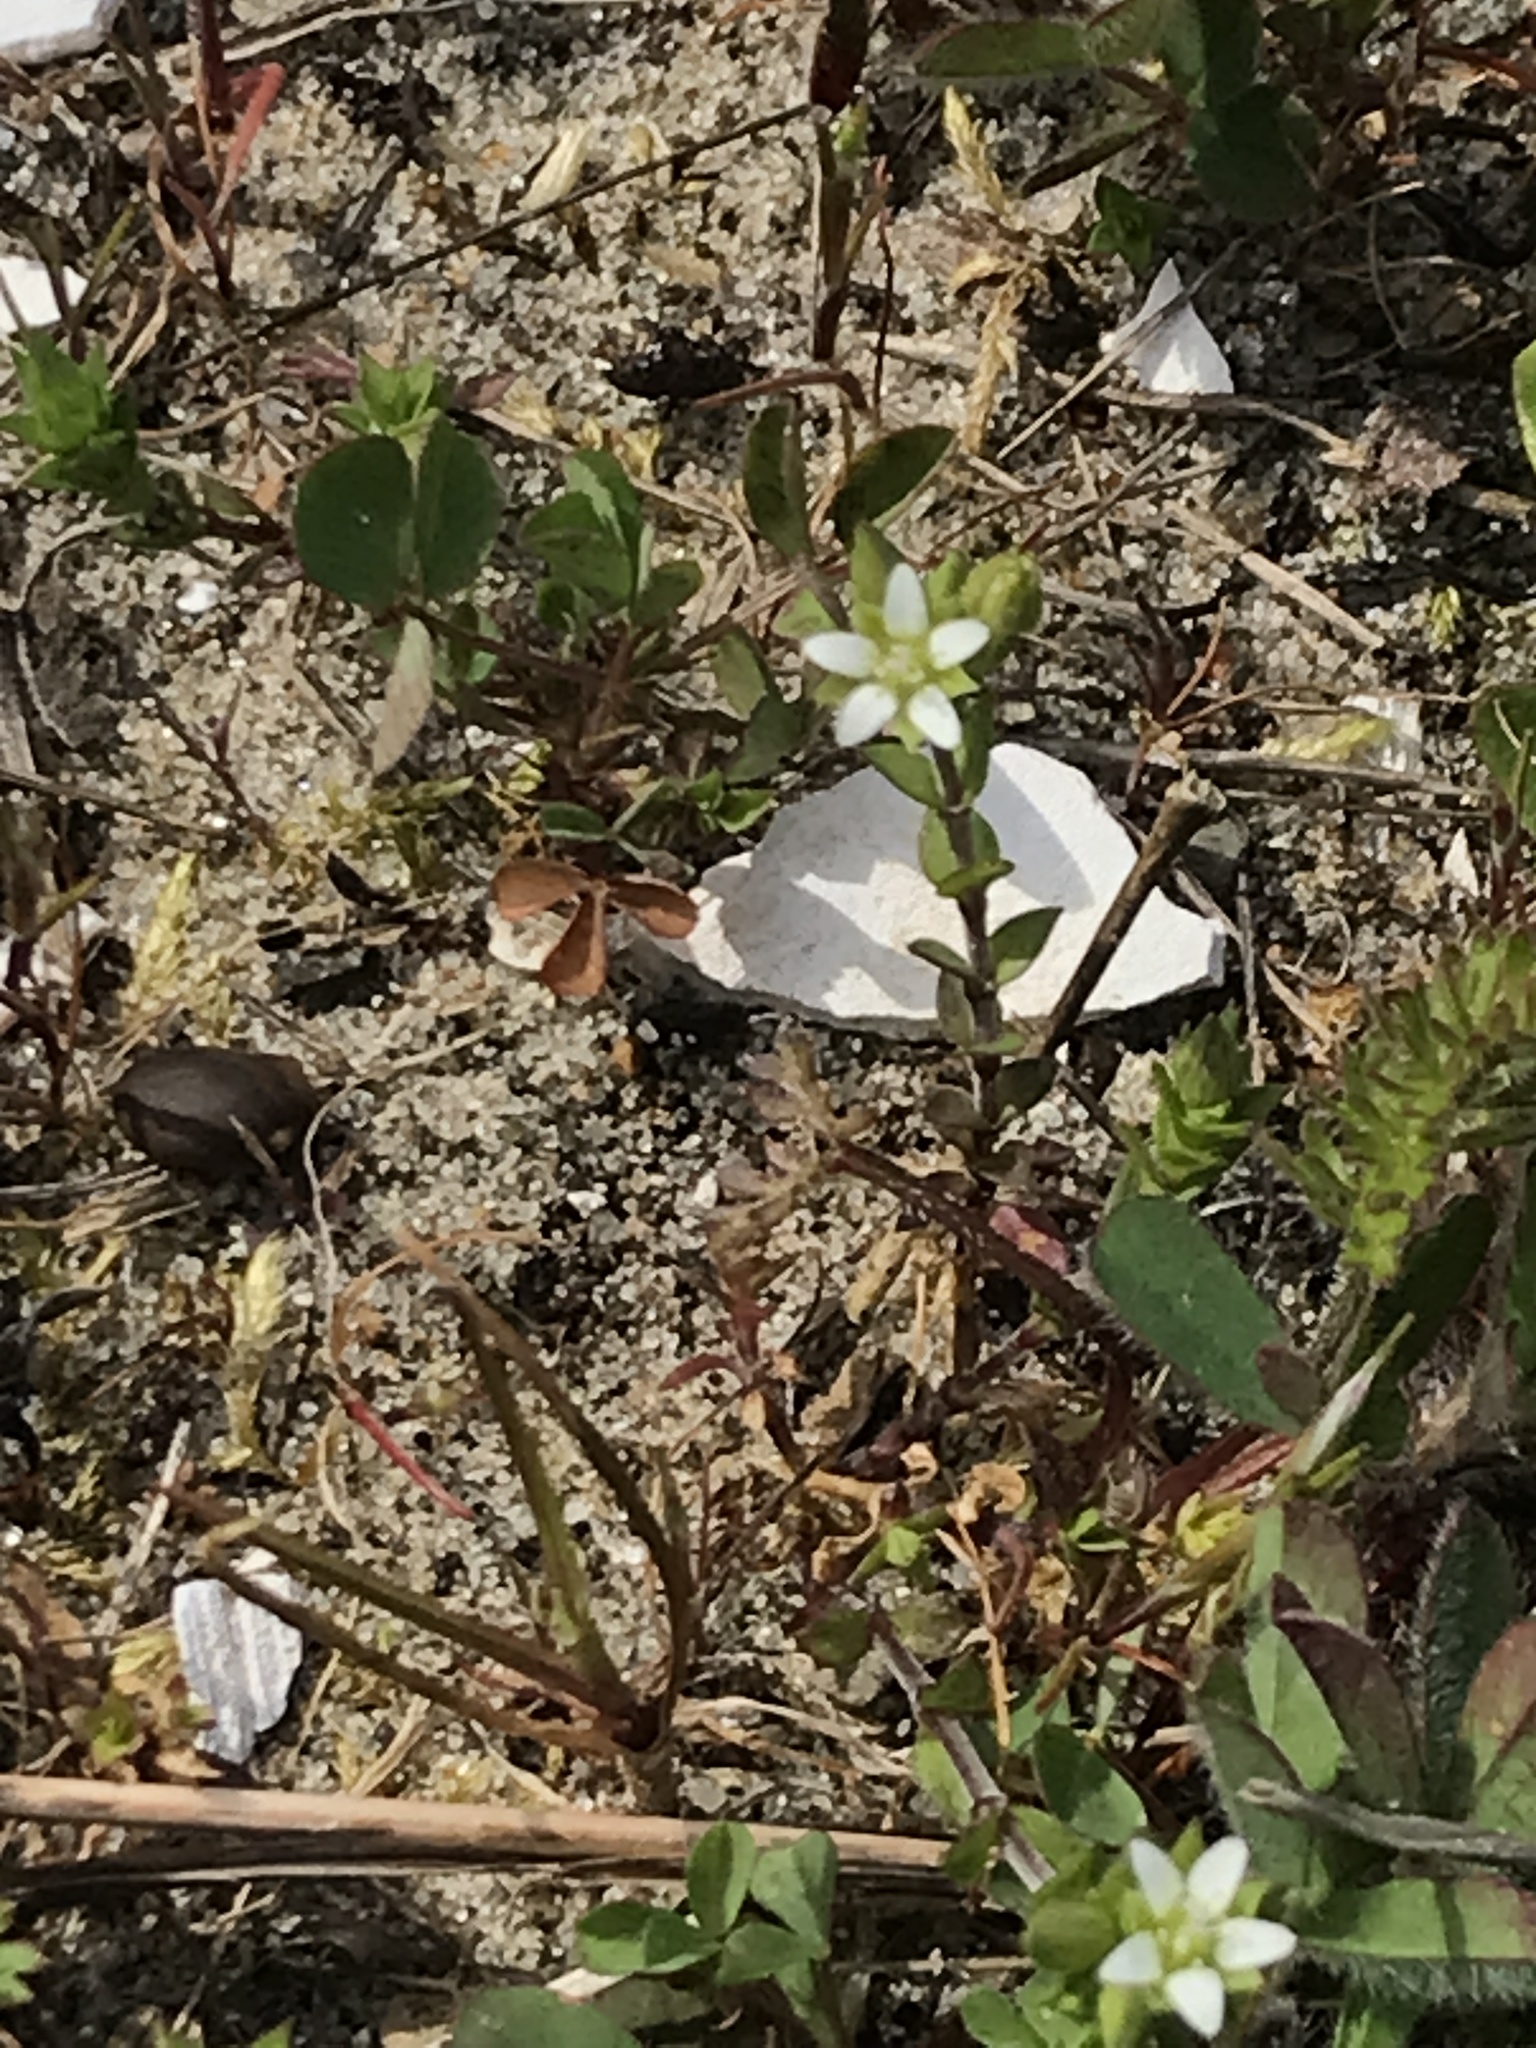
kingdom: Plantae
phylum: Tracheophyta
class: Magnoliopsida
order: Caryophyllales
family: Caryophyllaceae
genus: Arenaria
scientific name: Arenaria serpyllifolia
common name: Thyme-leaved sandwort
